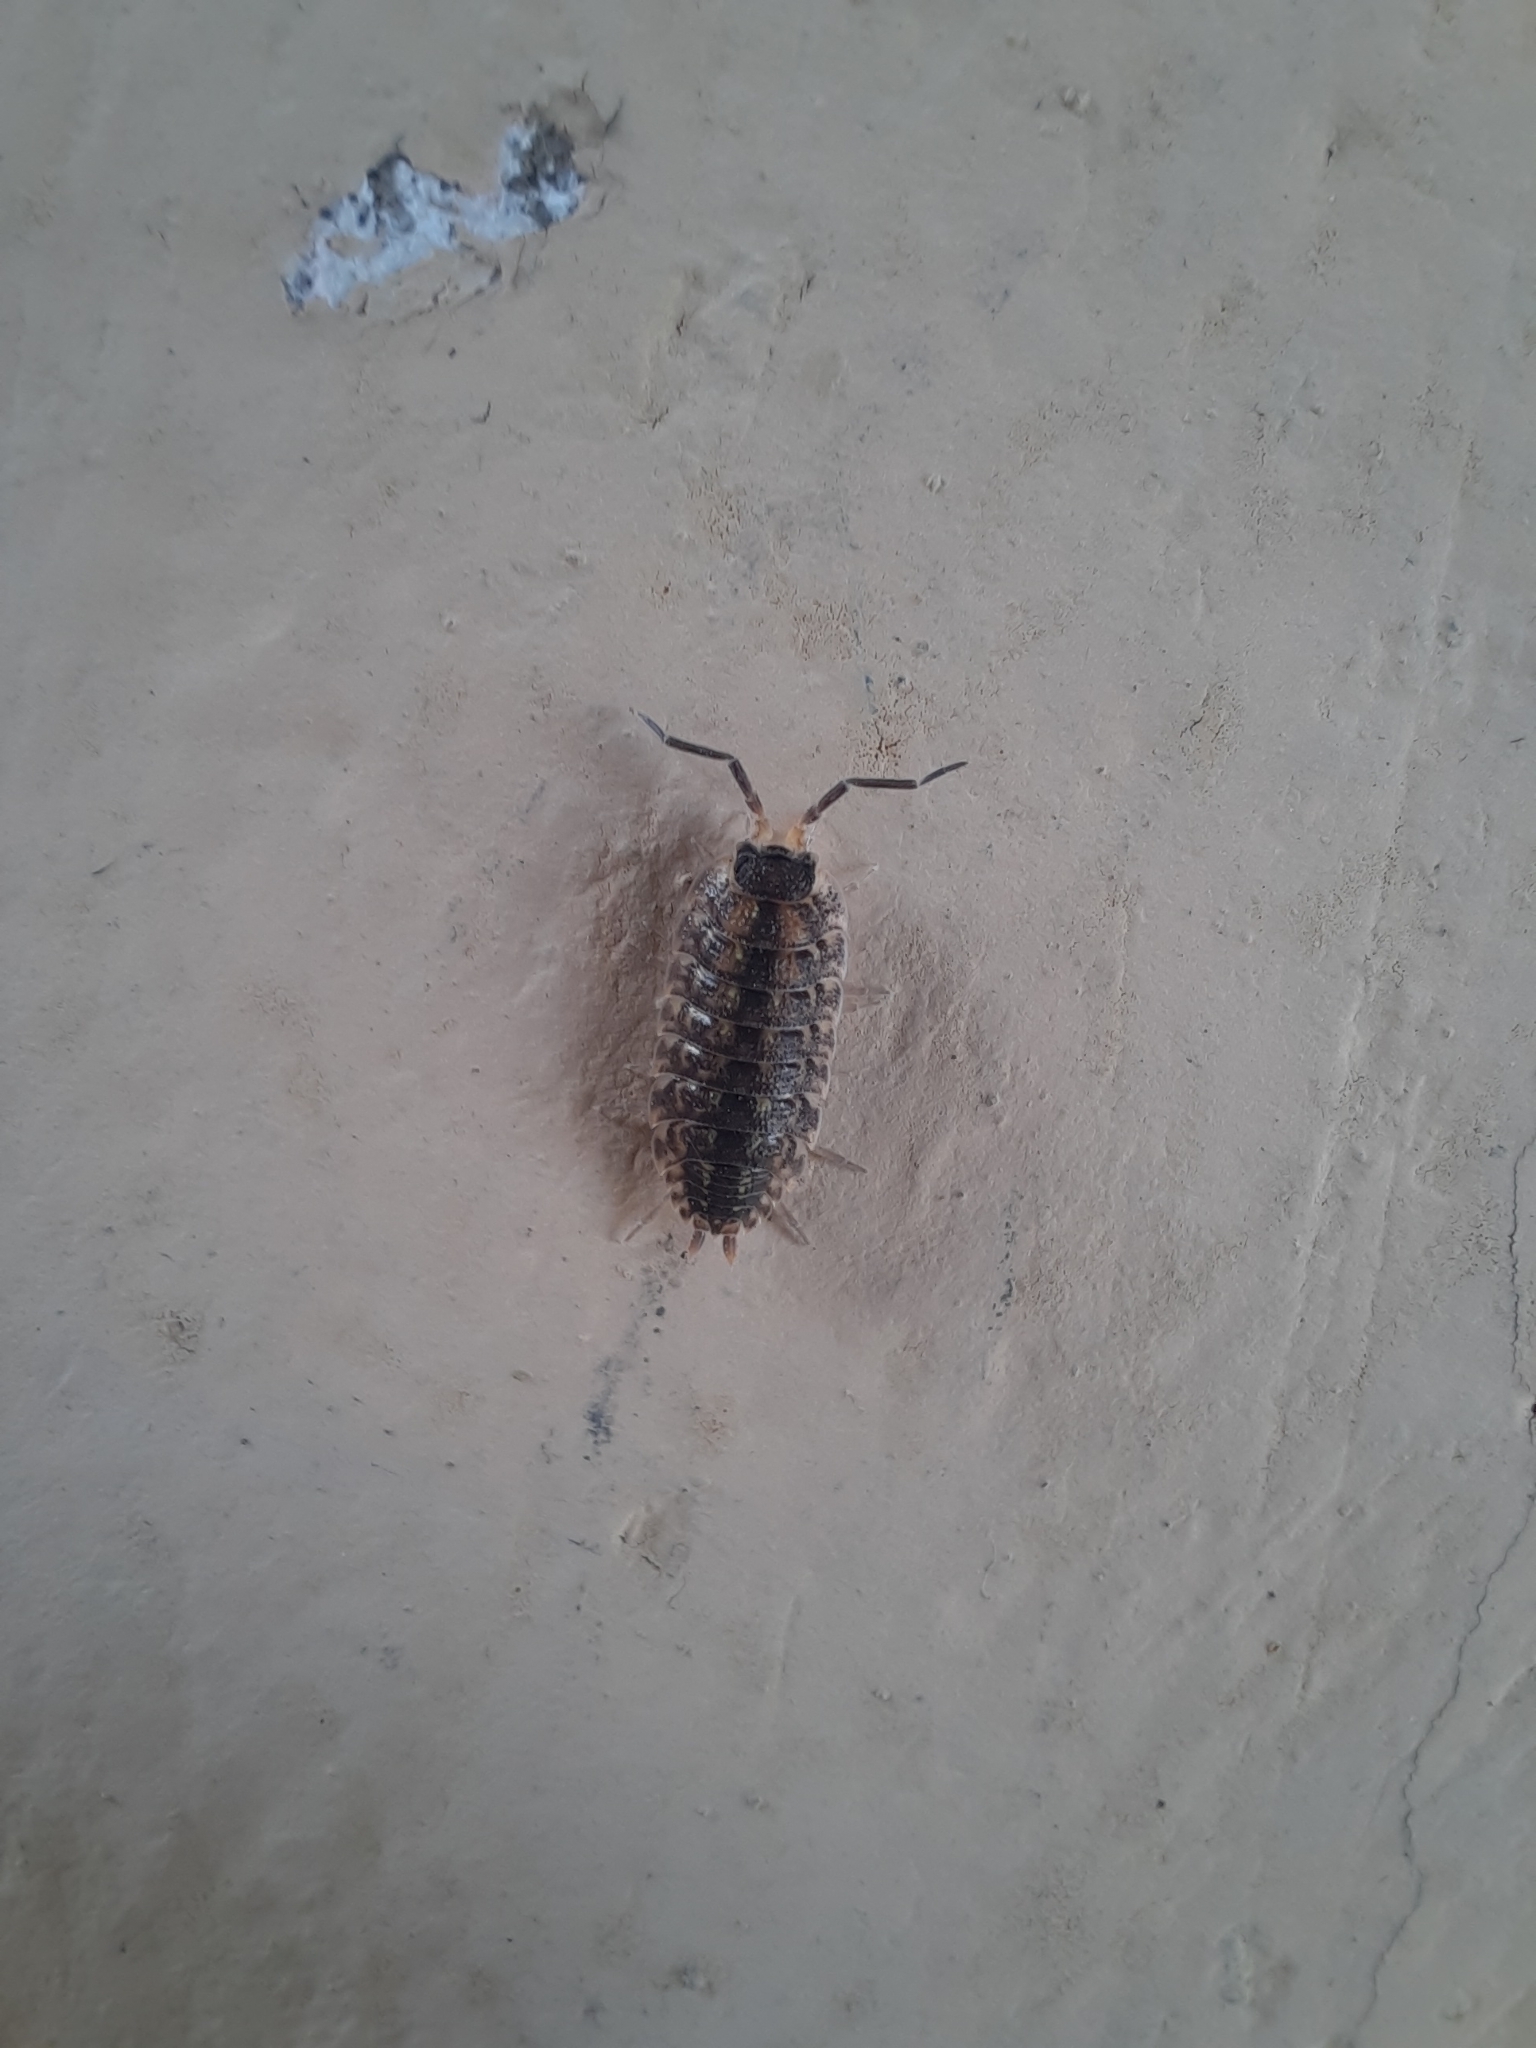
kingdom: Animalia
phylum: Arthropoda
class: Malacostraca
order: Isopoda
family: Porcellionidae
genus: Porcellio
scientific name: Porcellio spinicornis
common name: Painted woodlouse
